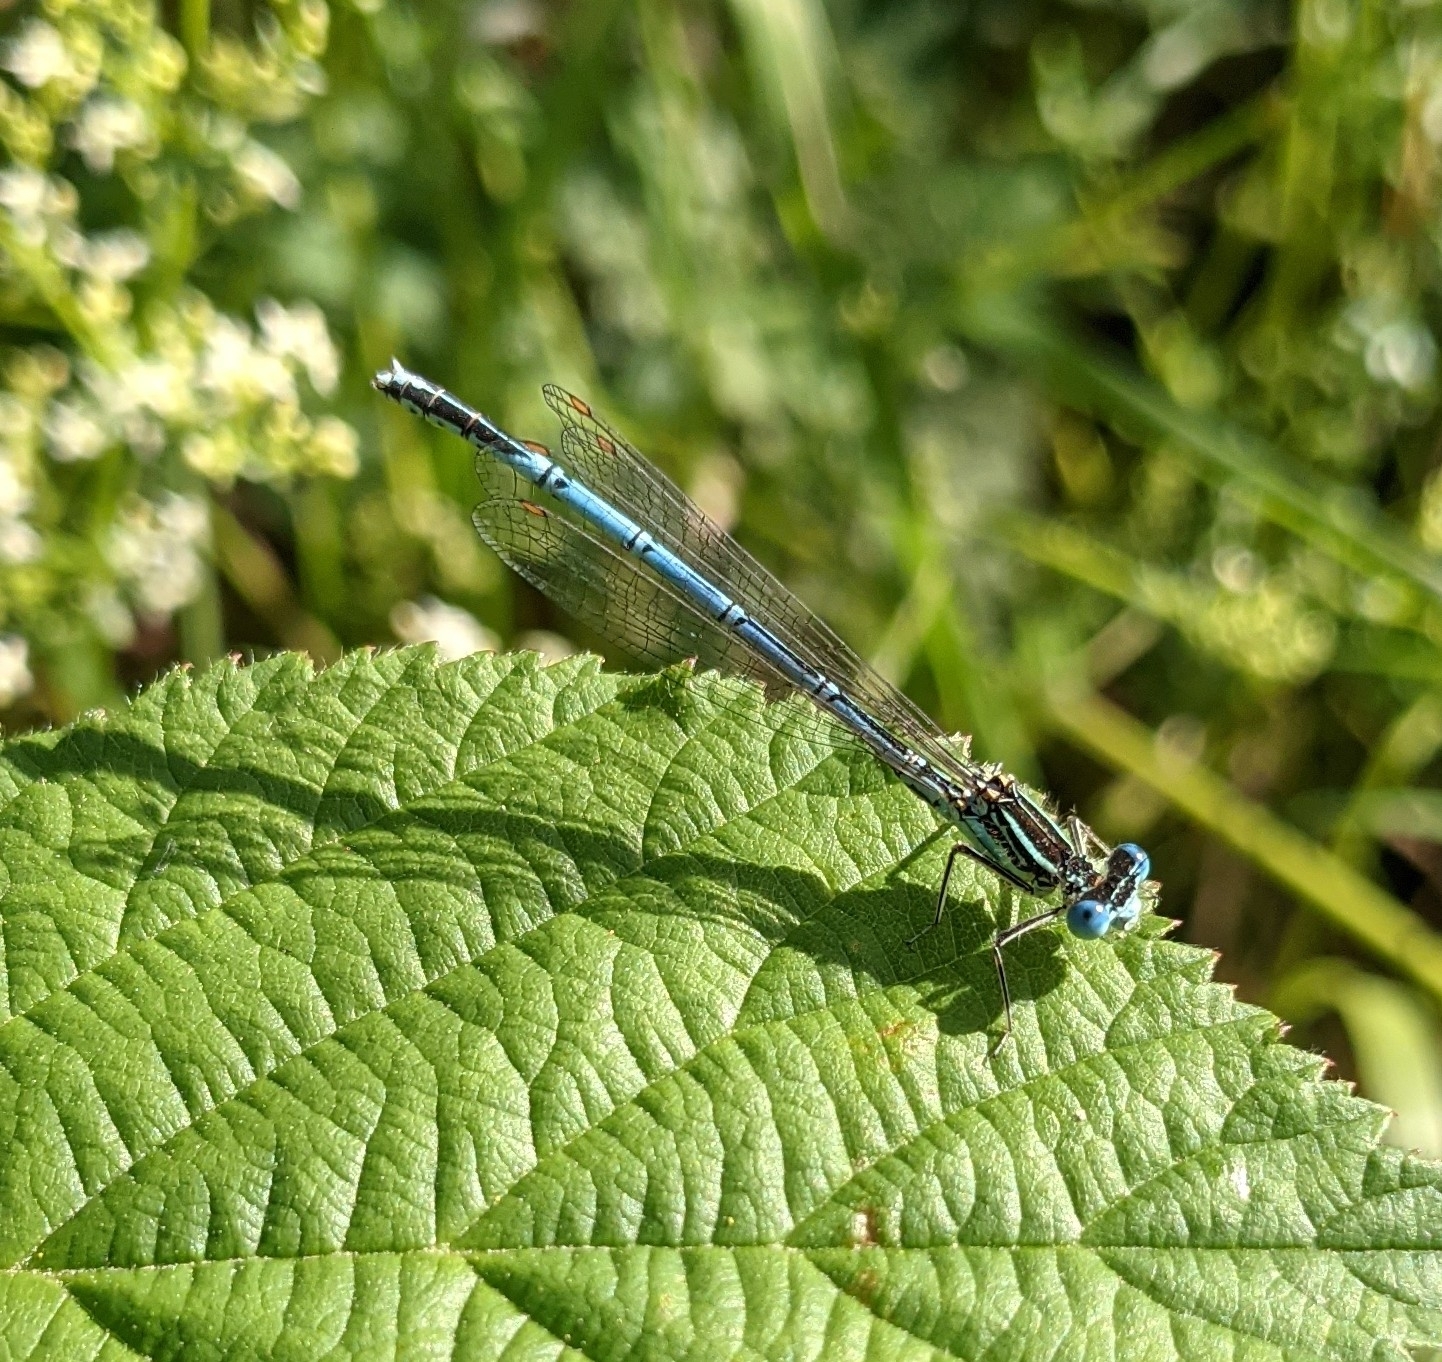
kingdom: Animalia
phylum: Arthropoda
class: Insecta
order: Odonata
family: Platycnemididae
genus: Platycnemis
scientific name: Platycnemis pennipes
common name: White-legged damselfly
